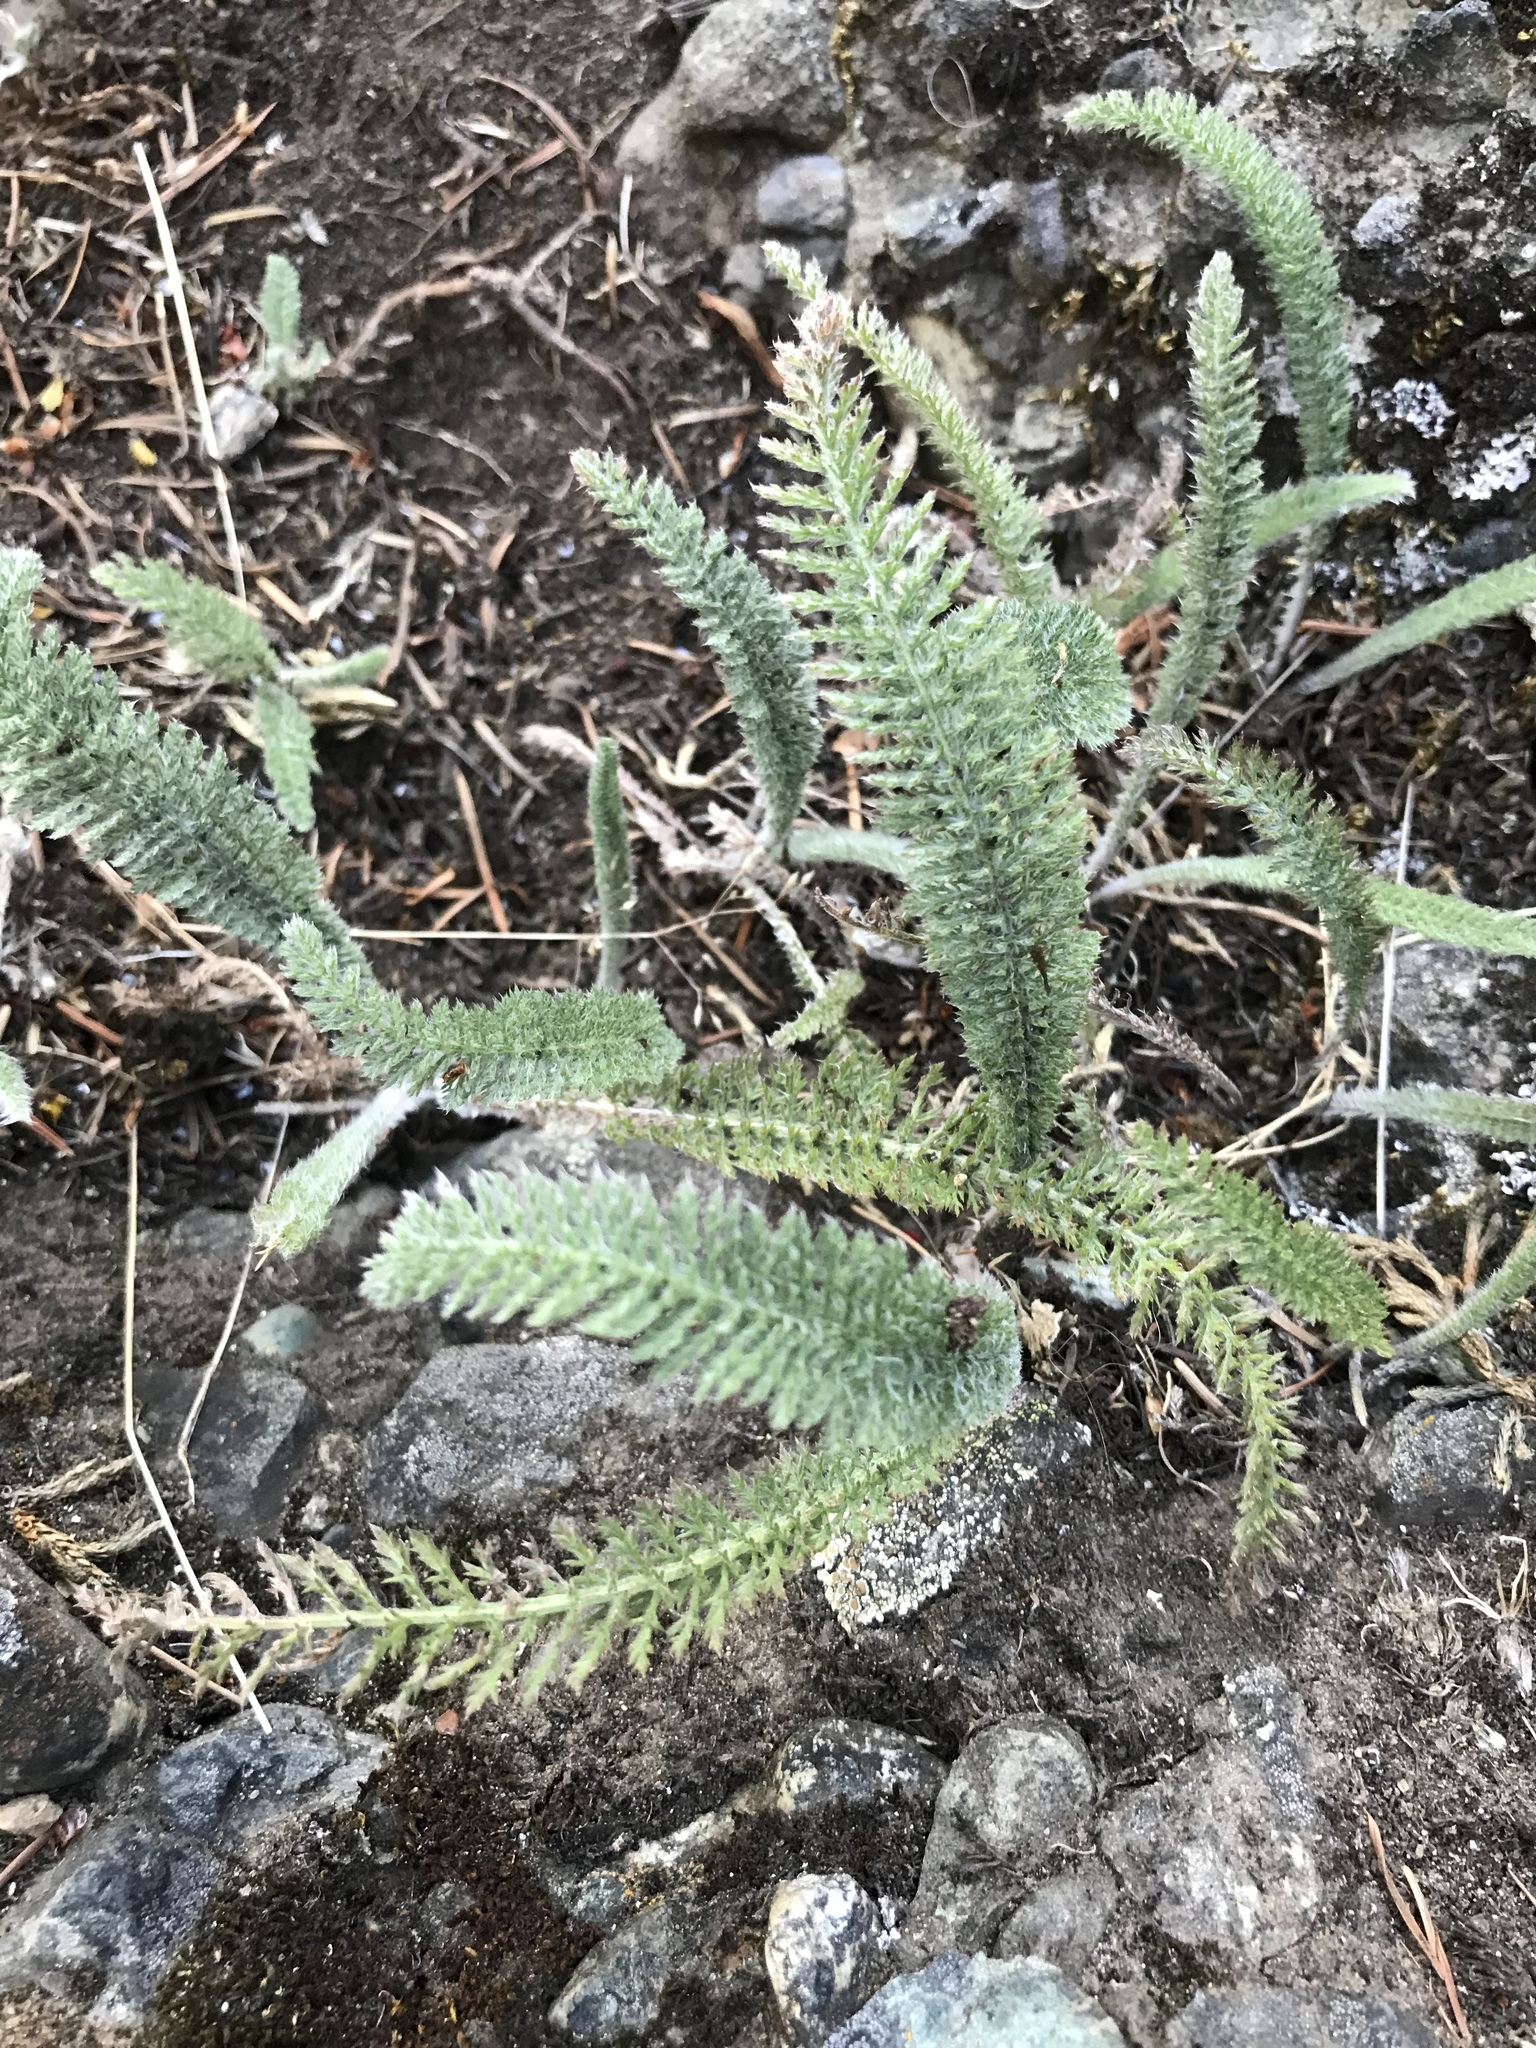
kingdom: Plantae
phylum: Tracheophyta
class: Magnoliopsida
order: Asterales
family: Asteraceae
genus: Achillea
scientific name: Achillea millefolium
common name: Yarrow
